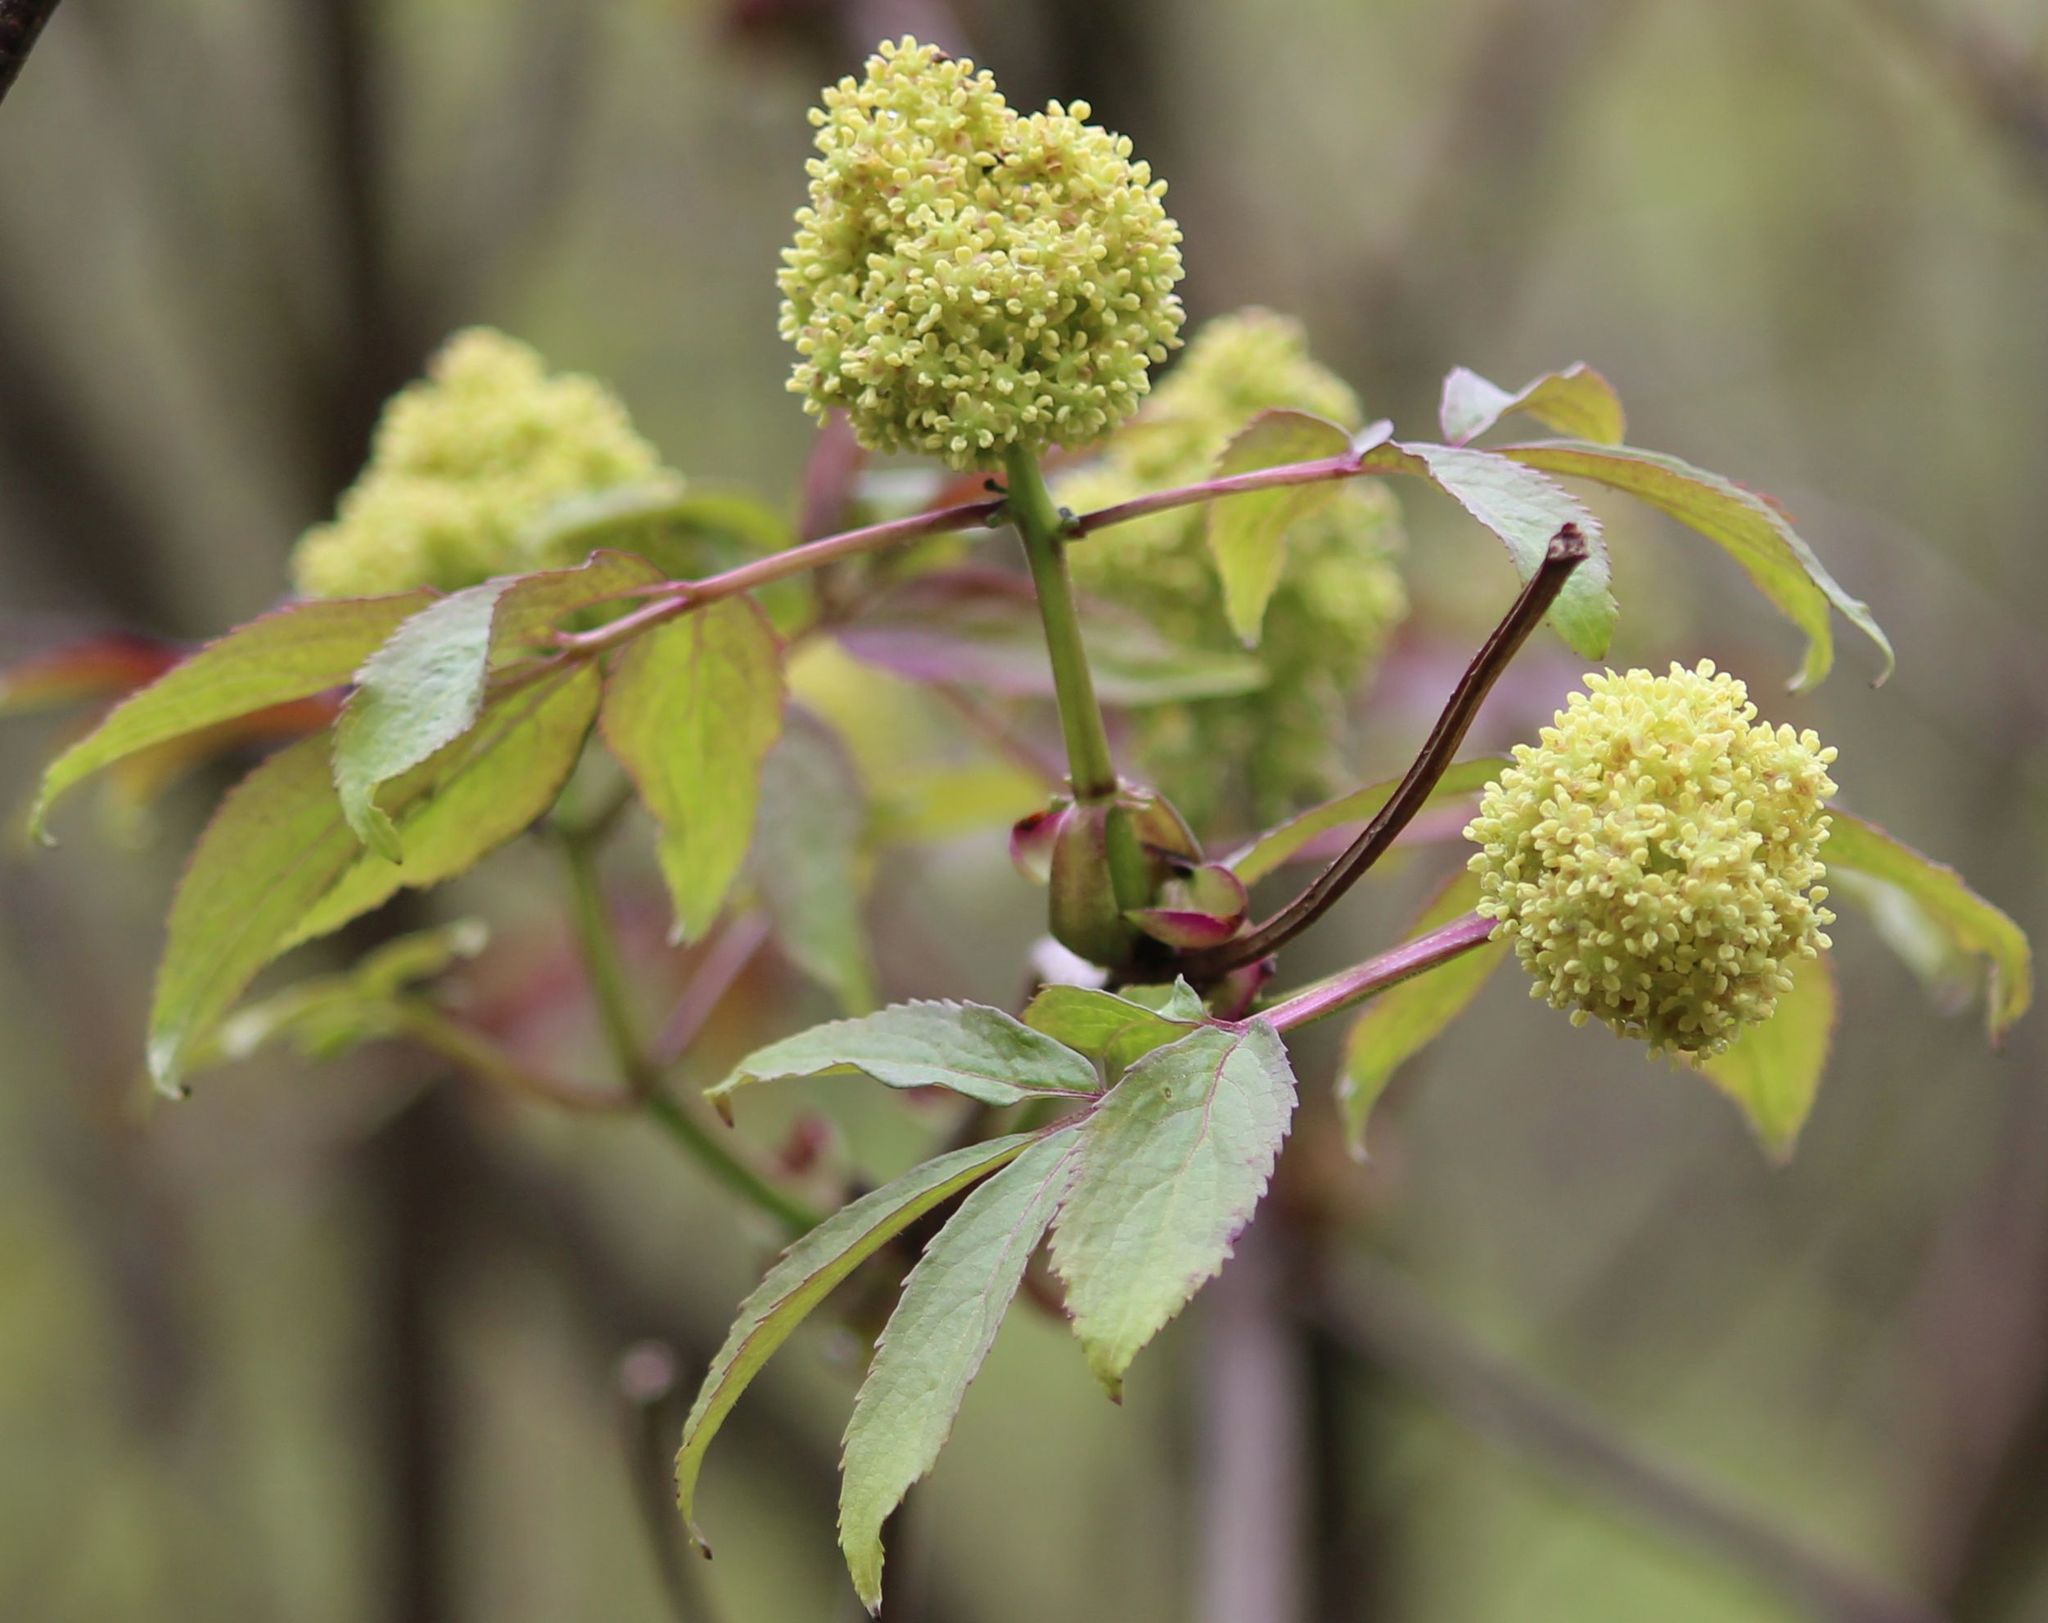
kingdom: Plantae
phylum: Tracheophyta
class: Magnoliopsida
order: Dipsacales
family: Viburnaceae
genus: Sambucus
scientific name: Sambucus racemosa
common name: Red-berried elder
